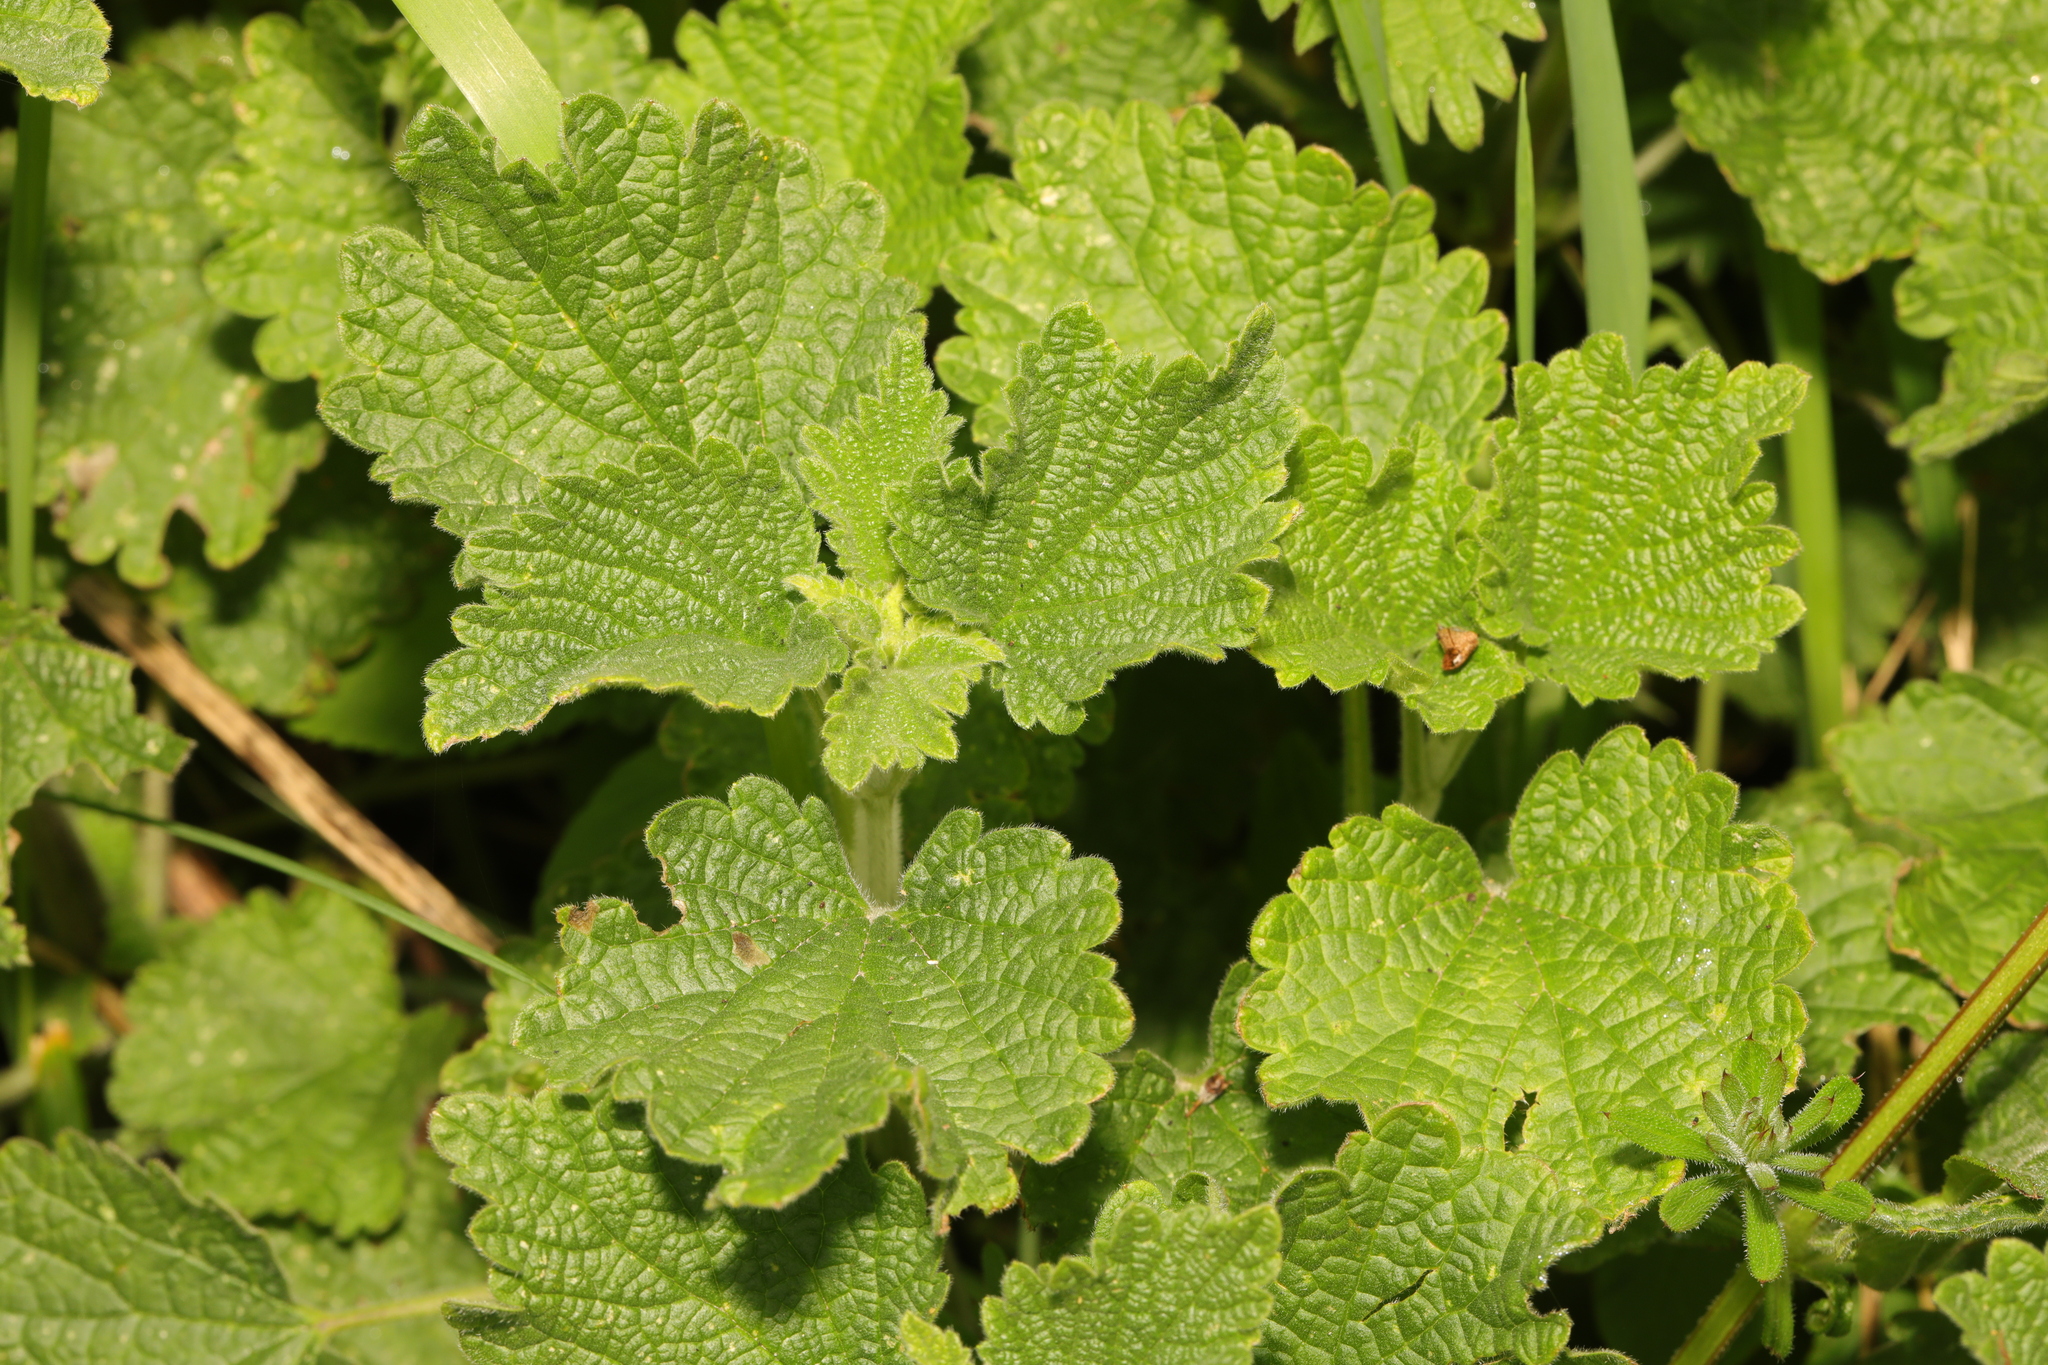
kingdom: Plantae
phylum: Tracheophyta
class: Magnoliopsida
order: Lamiales
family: Lamiaceae
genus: Ballota
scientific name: Ballota nigra
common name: Black horehound
